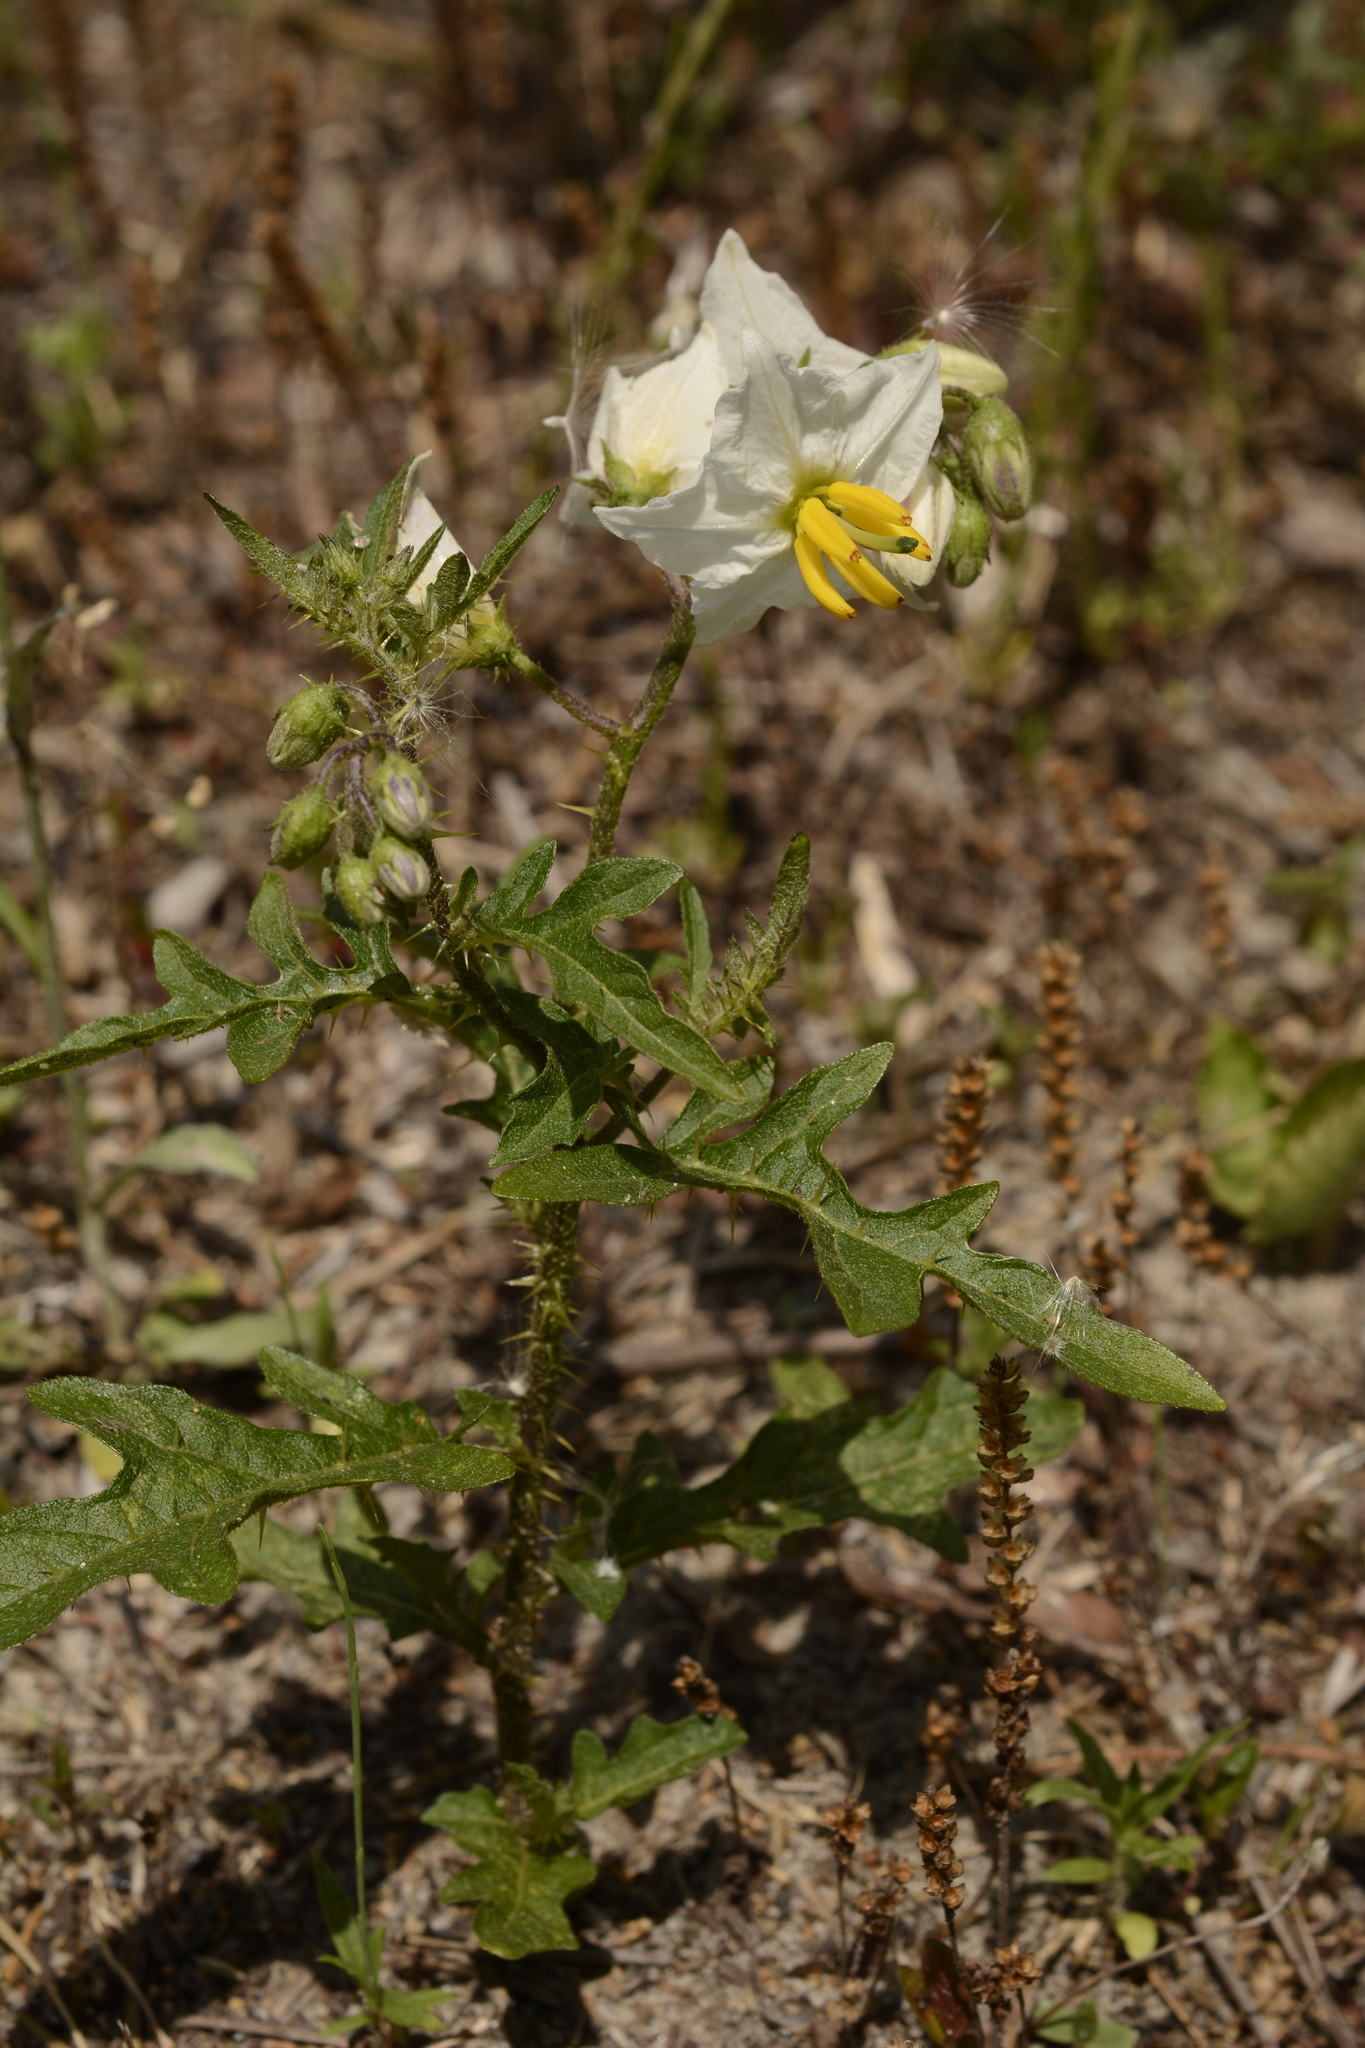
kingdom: Plantae
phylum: Tracheophyta
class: Magnoliopsida
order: Solanales
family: Solanaceae
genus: Solanum
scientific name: Solanum carolinense
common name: Horse-nettle
